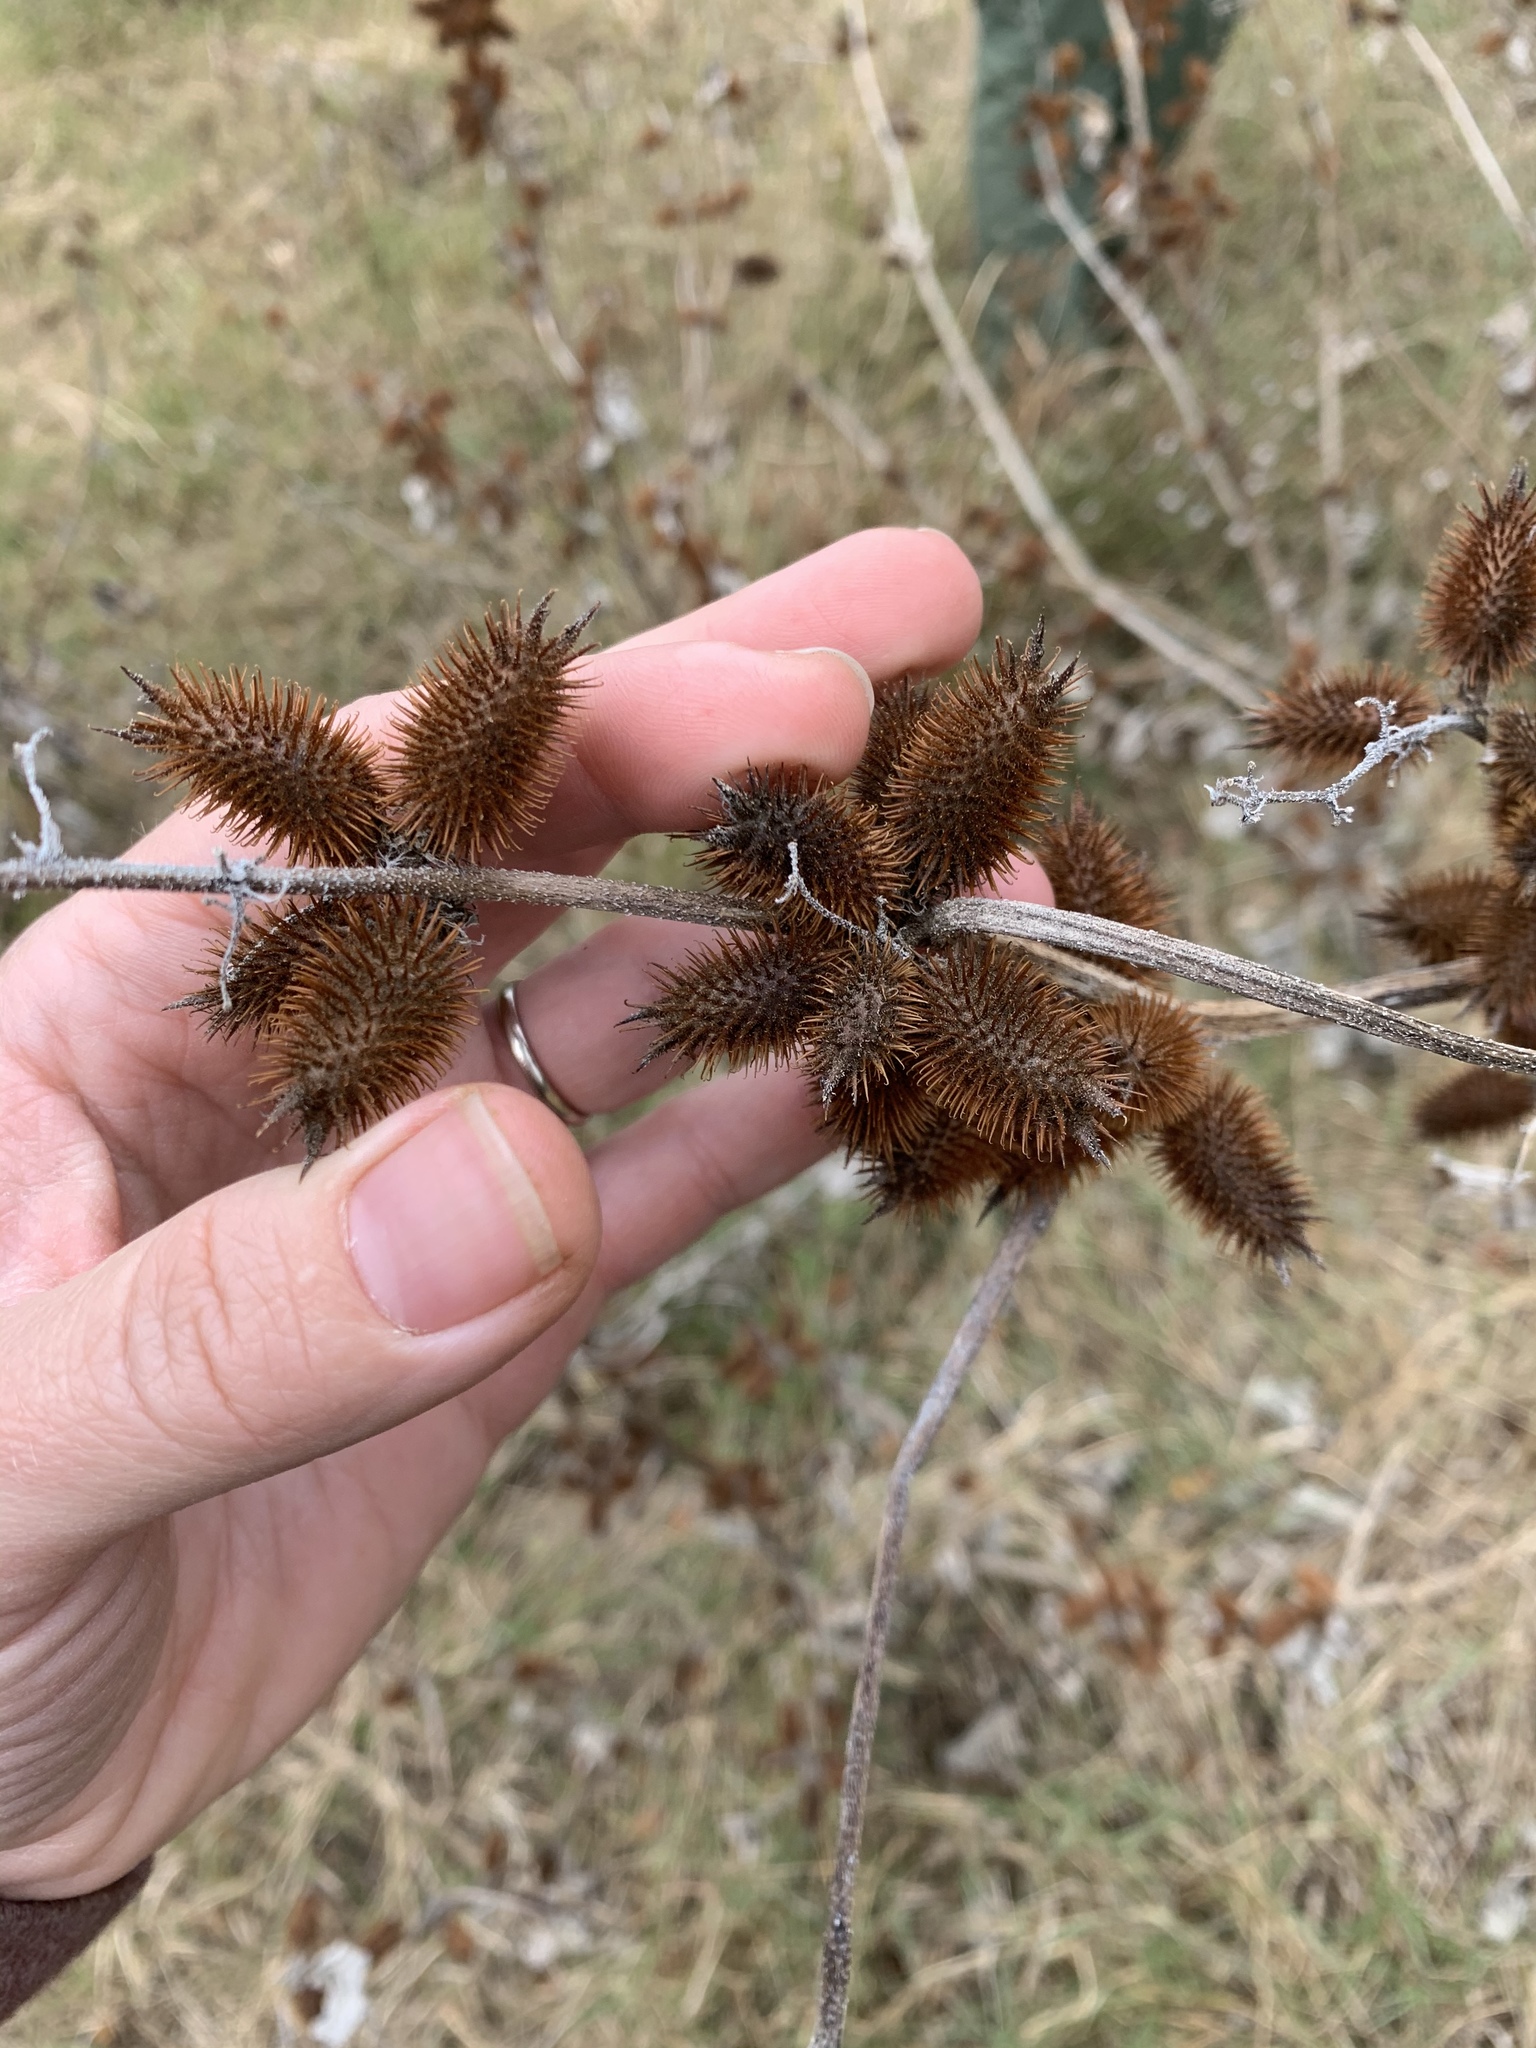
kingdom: Plantae
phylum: Tracheophyta
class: Magnoliopsida
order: Asterales
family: Asteraceae
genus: Xanthium
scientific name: Xanthium strumarium
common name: Rough cocklebur
